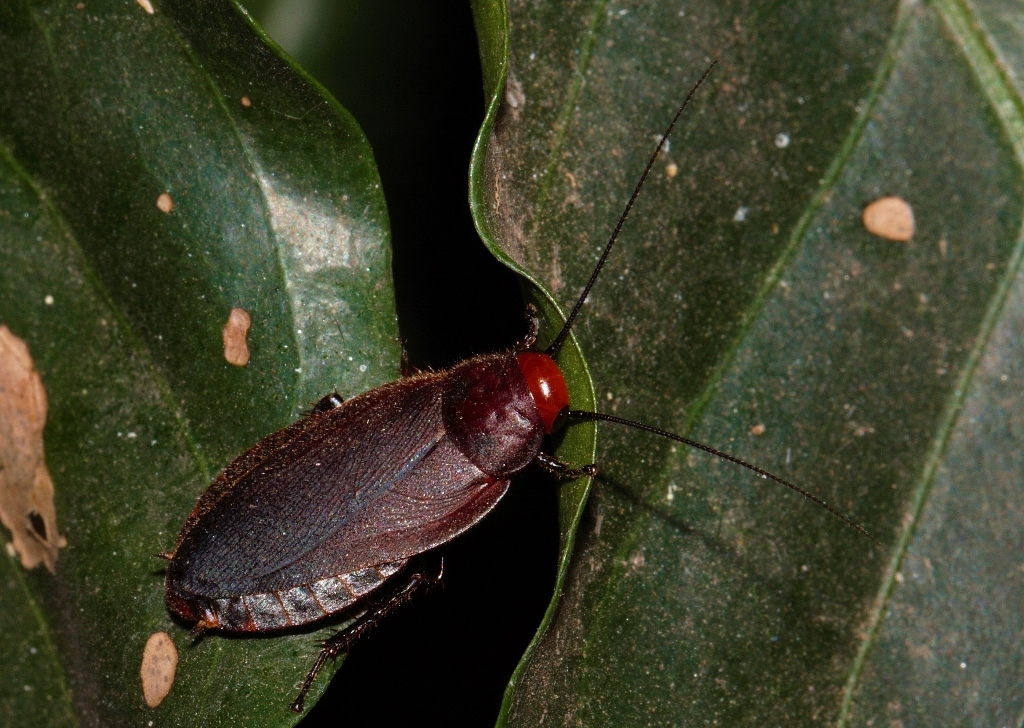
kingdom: Animalia
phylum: Arthropoda
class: Insecta
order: Blattodea
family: Blaberidae
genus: Oxyhaloa
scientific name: Oxyhaloa deusta
